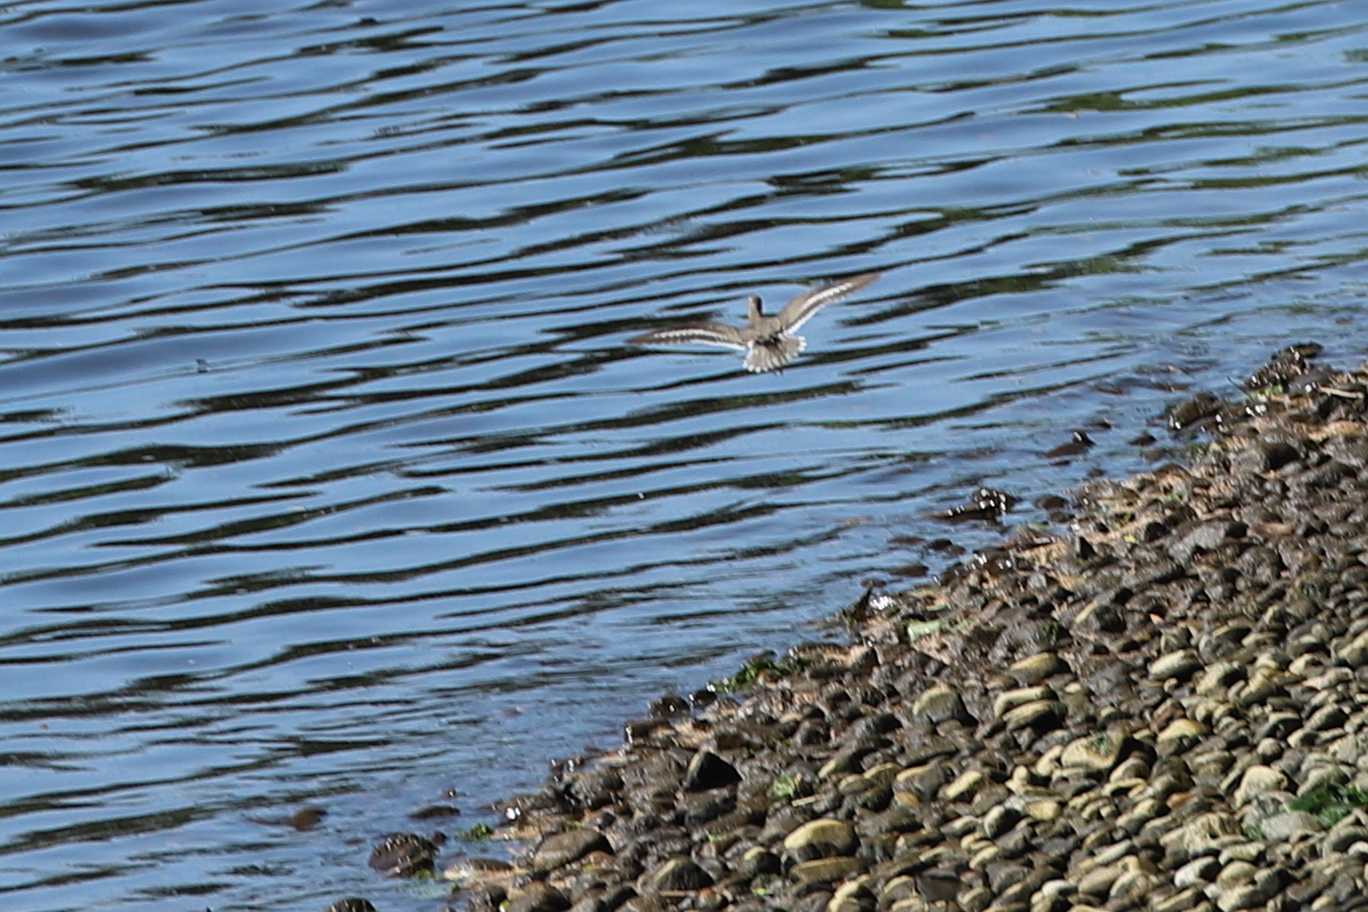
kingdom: Animalia
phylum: Chordata
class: Aves
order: Charadriiformes
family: Scolopacidae
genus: Actitis
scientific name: Actitis macularius
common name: Spotted sandpiper
